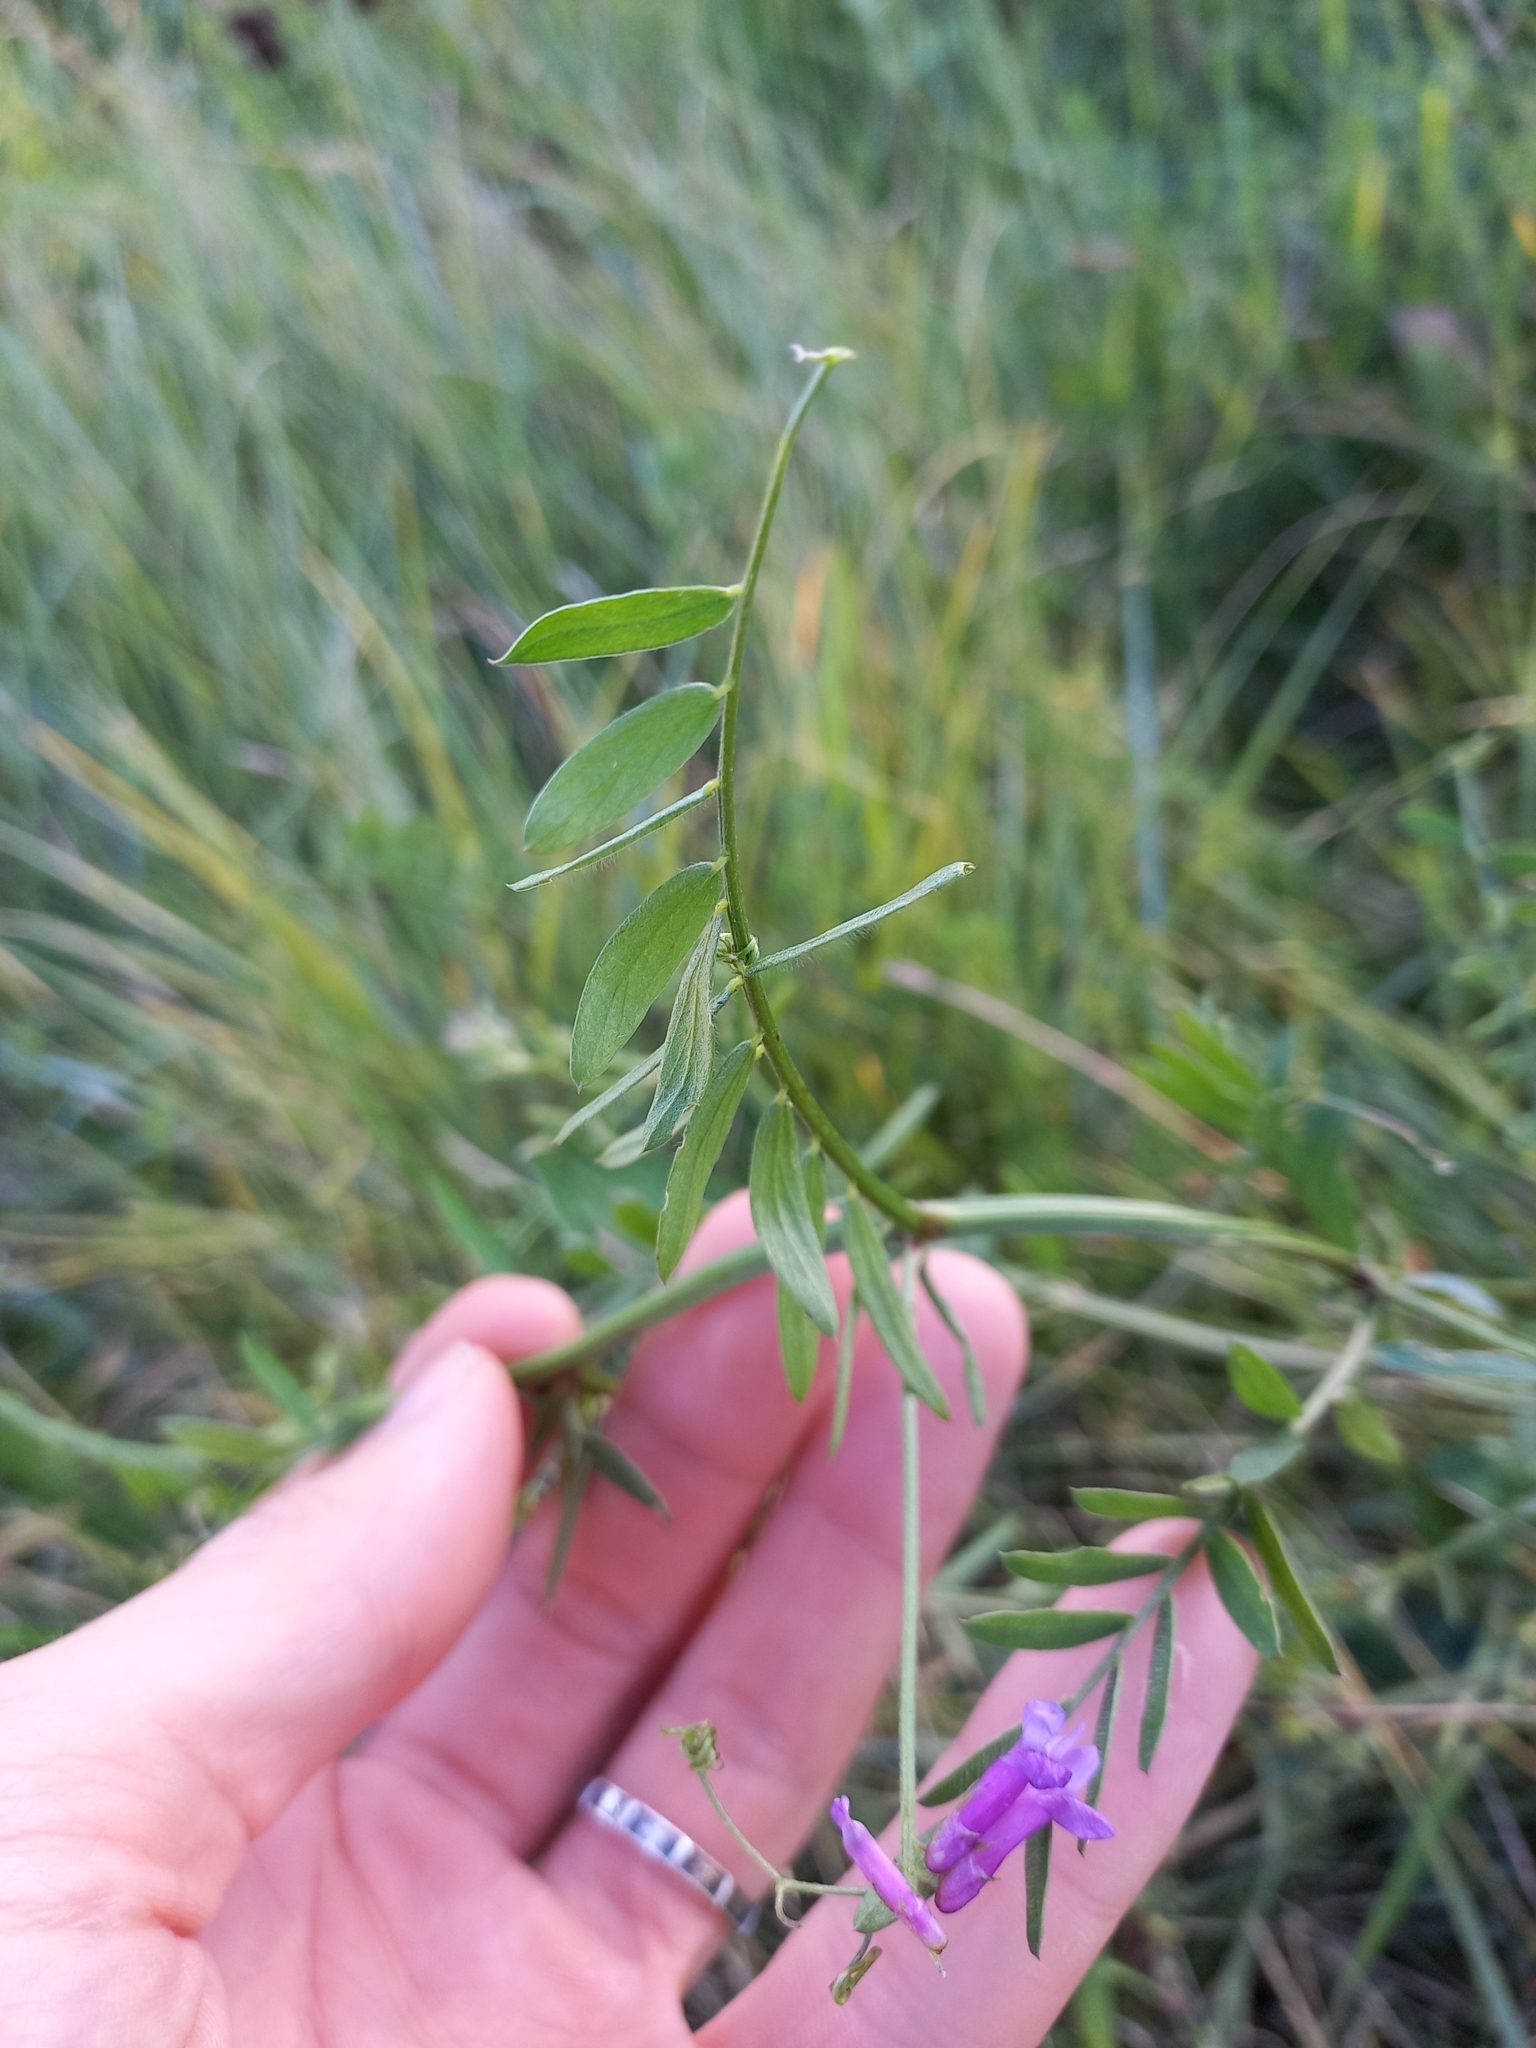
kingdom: Plantae
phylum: Tracheophyta
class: Magnoliopsida
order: Fabales
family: Fabaceae
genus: Vicia
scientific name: Vicia villosa
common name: Fodder vetch
